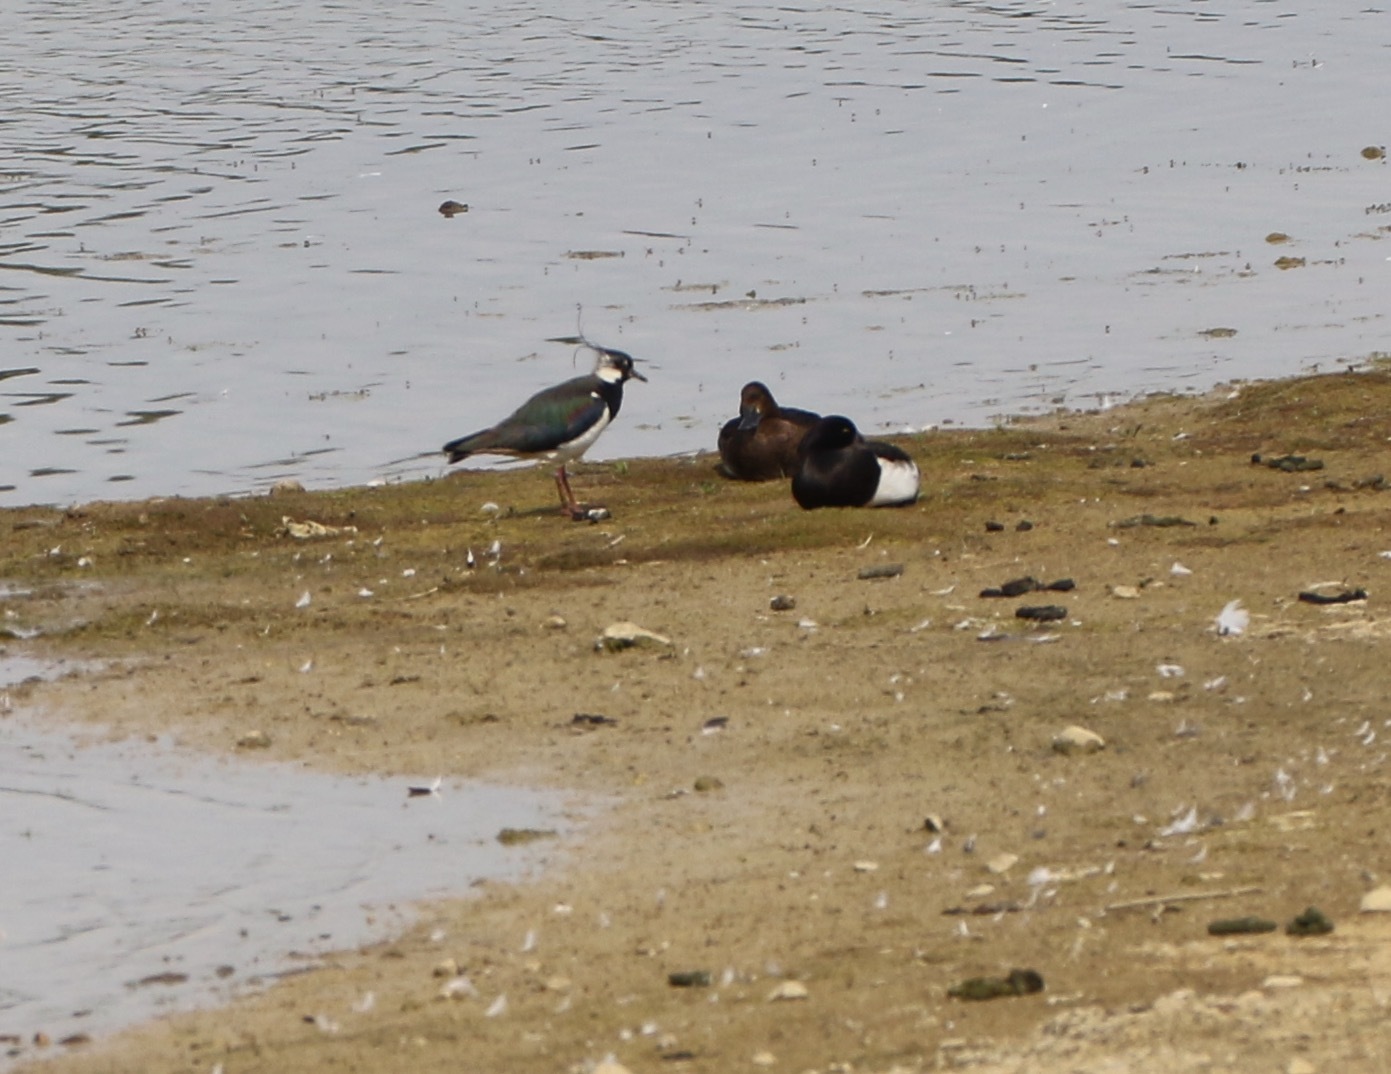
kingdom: Animalia
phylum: Chordata
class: Aves
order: Charadriiformes
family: Charadriidae
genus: Vanellus
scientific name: Vanellus vanellus
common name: Northern lapwing
